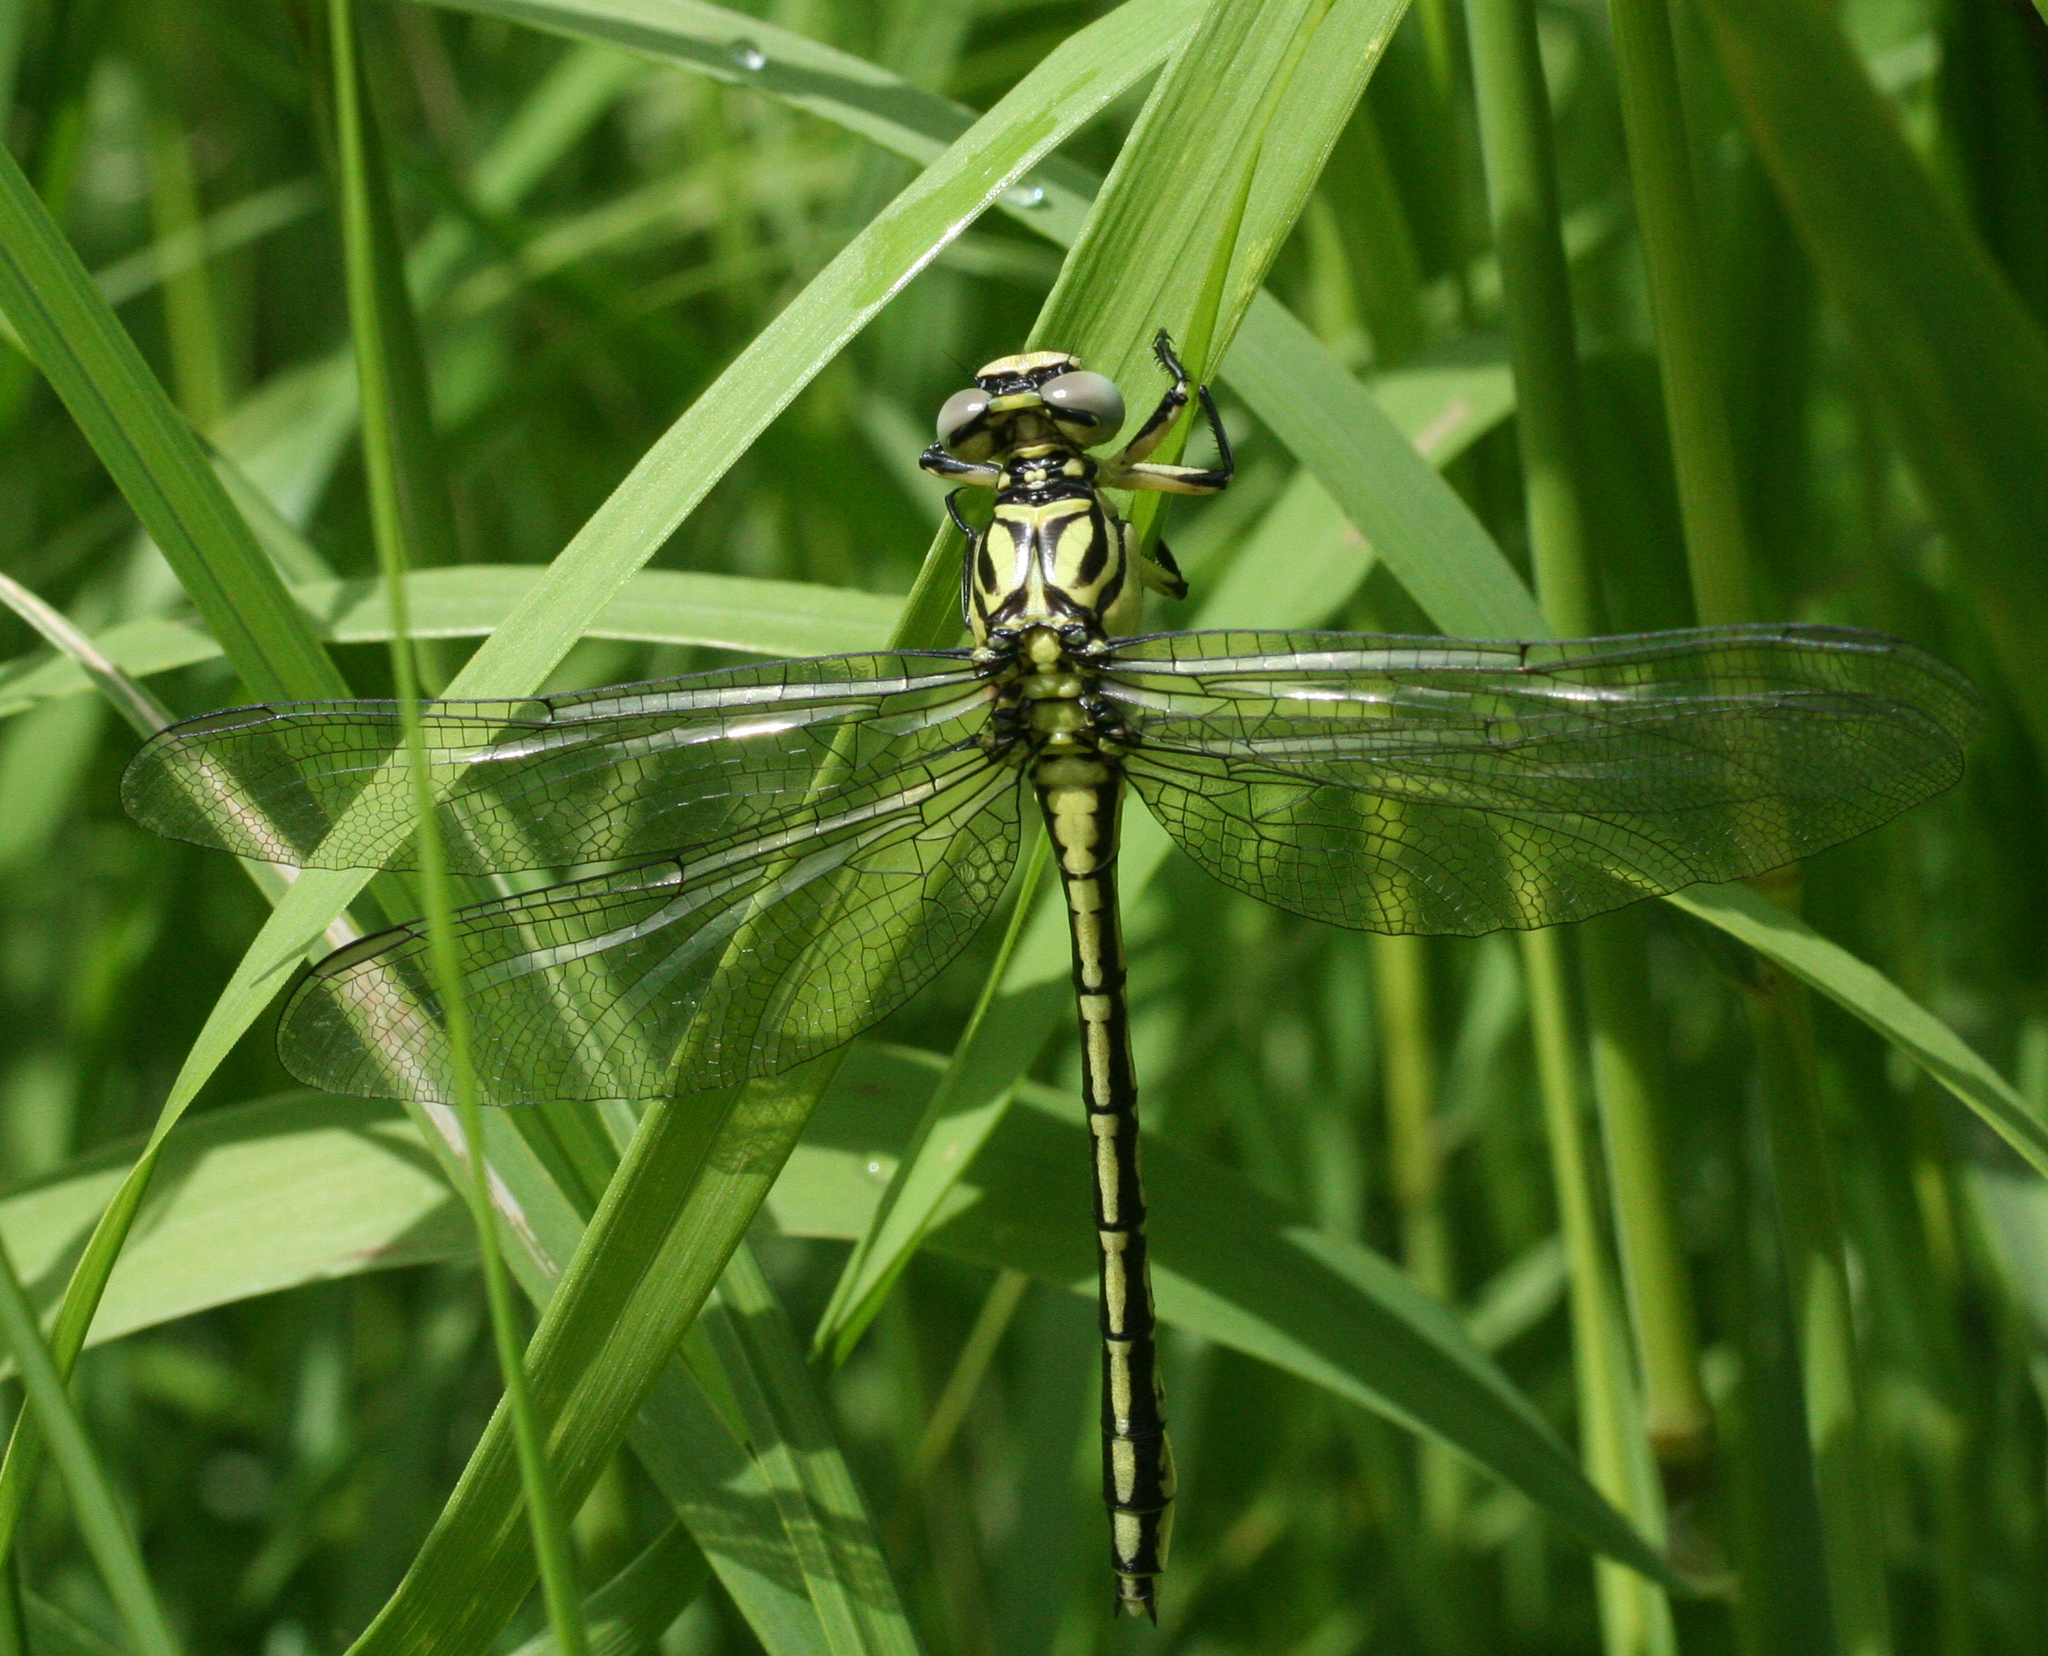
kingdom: Animalia
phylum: Arthropoda
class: Insecta
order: Odonata
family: Gomphidae
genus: Stylurus
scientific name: Stylurus flavipes
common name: River clubtail
